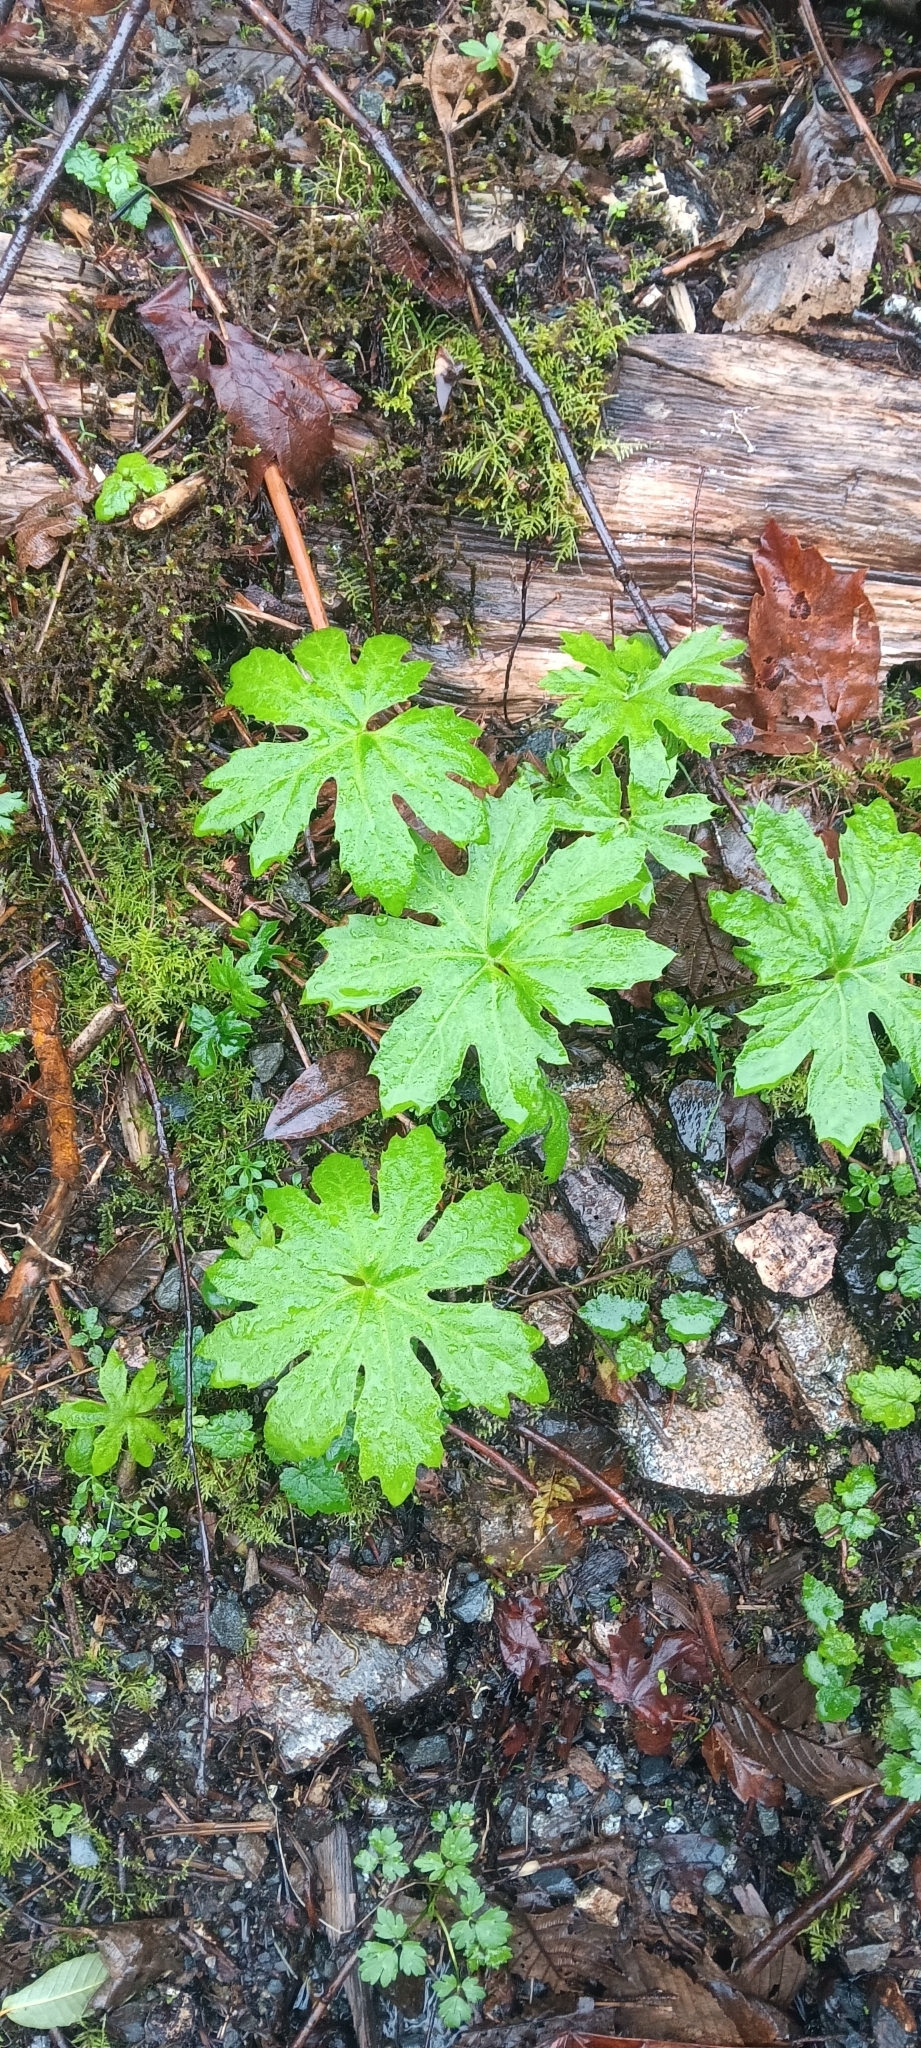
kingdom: Plantae
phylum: Tracheophyta
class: Magnoliopsida
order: Asterales
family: Asteraceae
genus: Petasites
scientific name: Petasites frigidus
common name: Arctic butterbur
